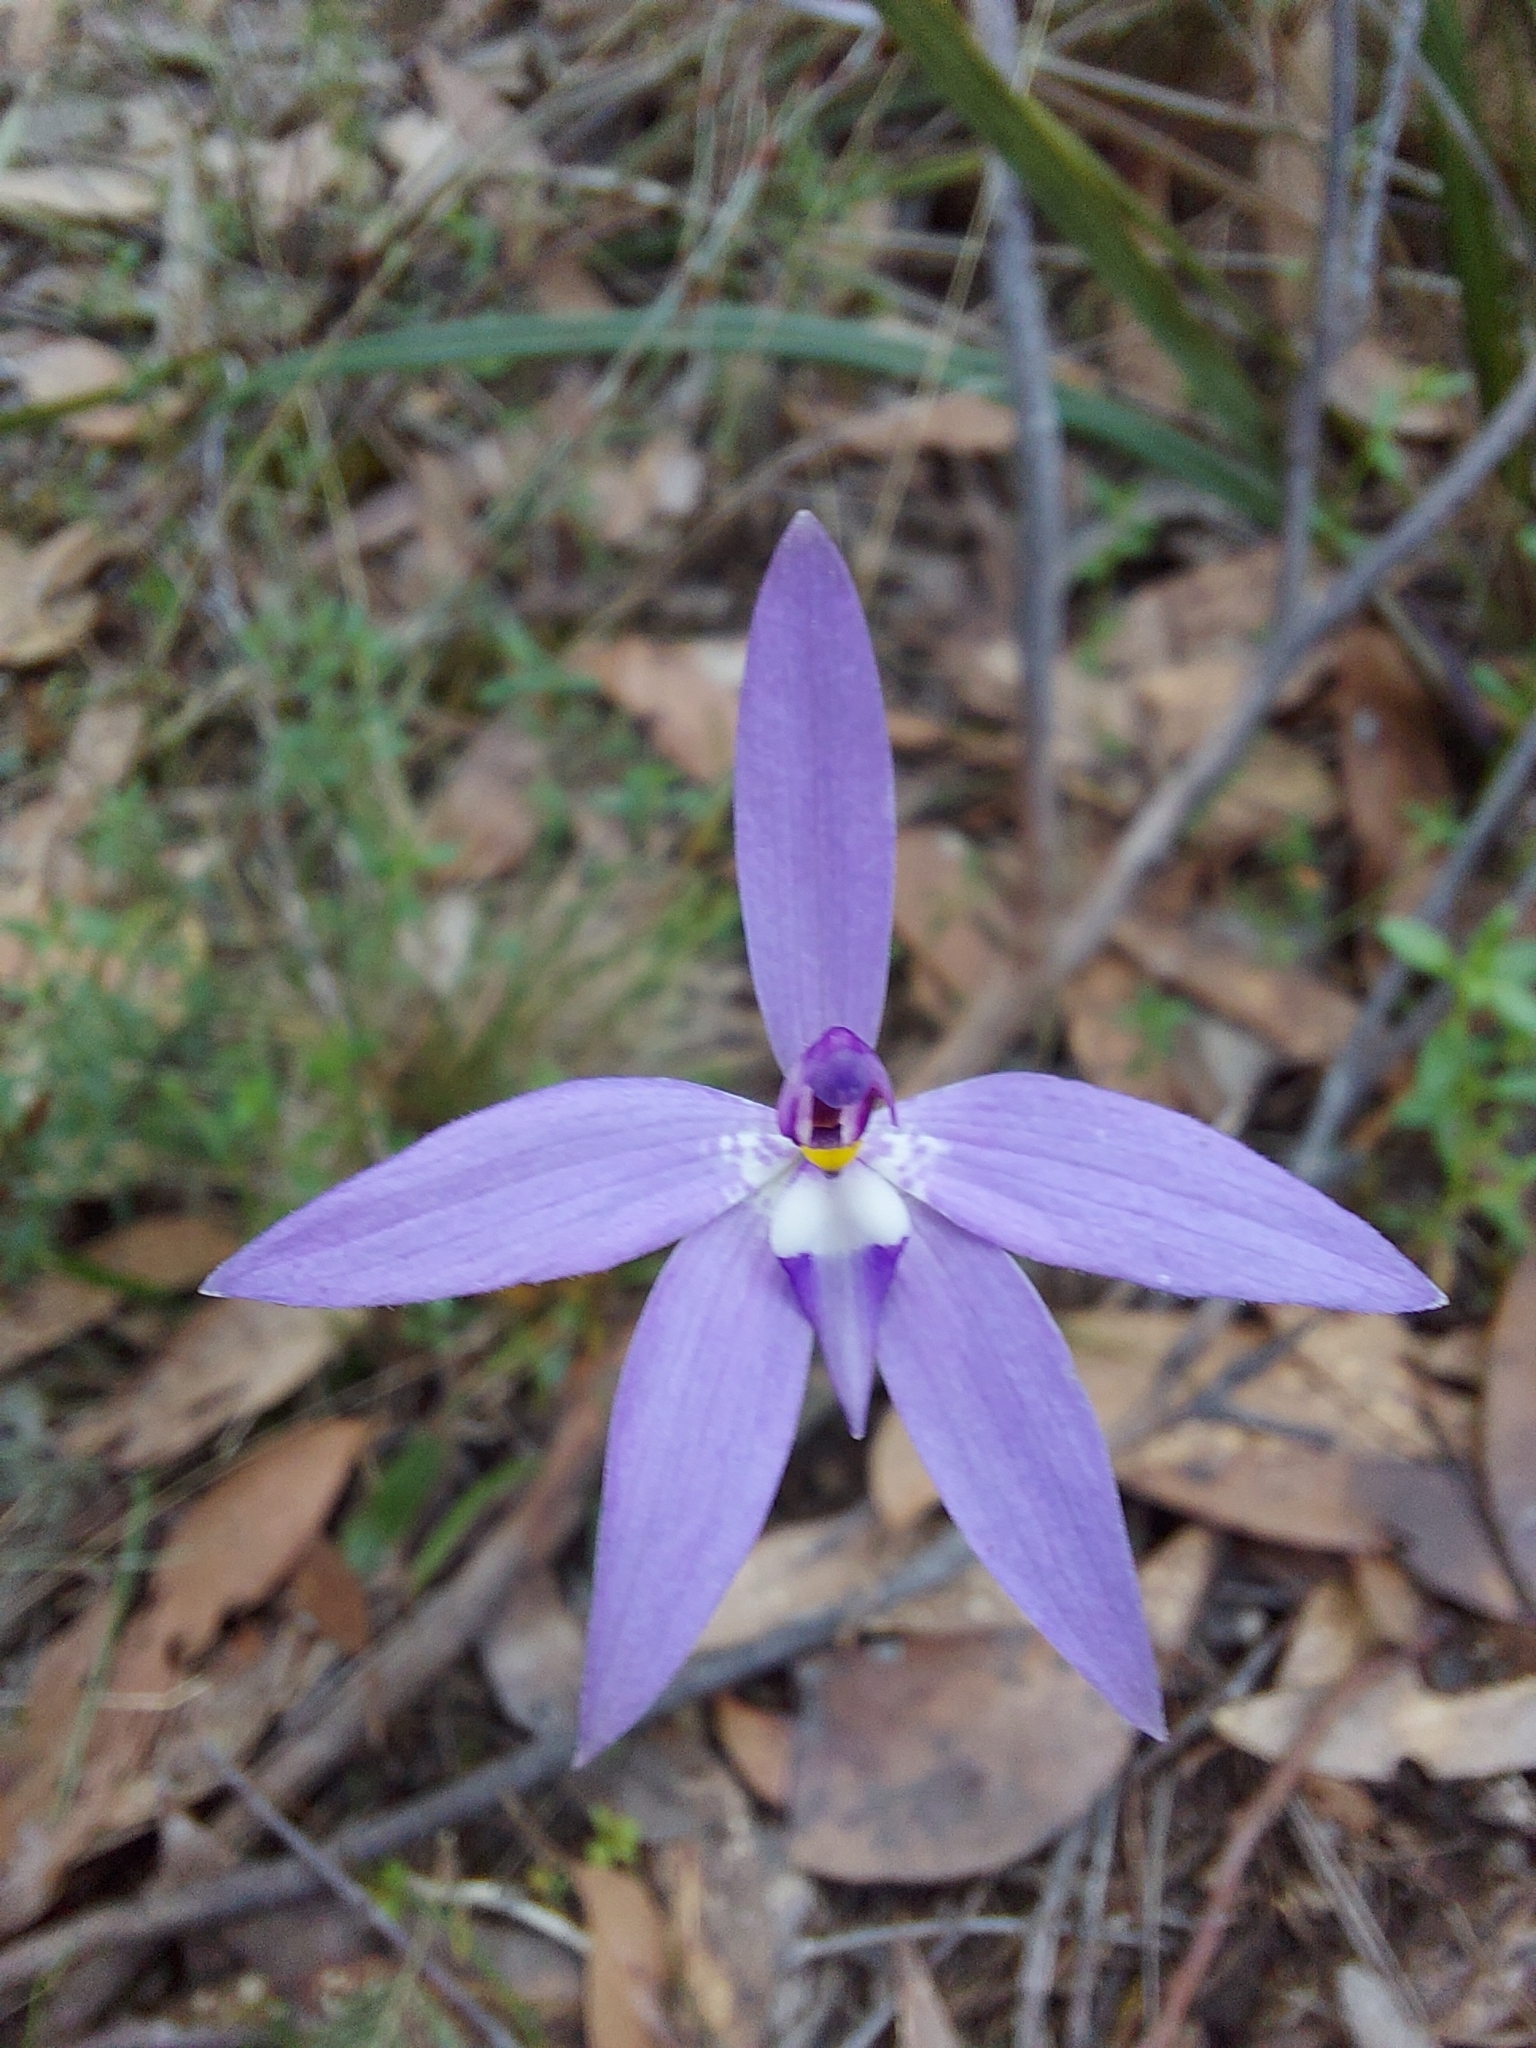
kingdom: Plantae
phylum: Tracheophyta
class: Liliopsida
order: Asparagales
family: Orchidaceae
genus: Caladenia
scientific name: Caladenia major
